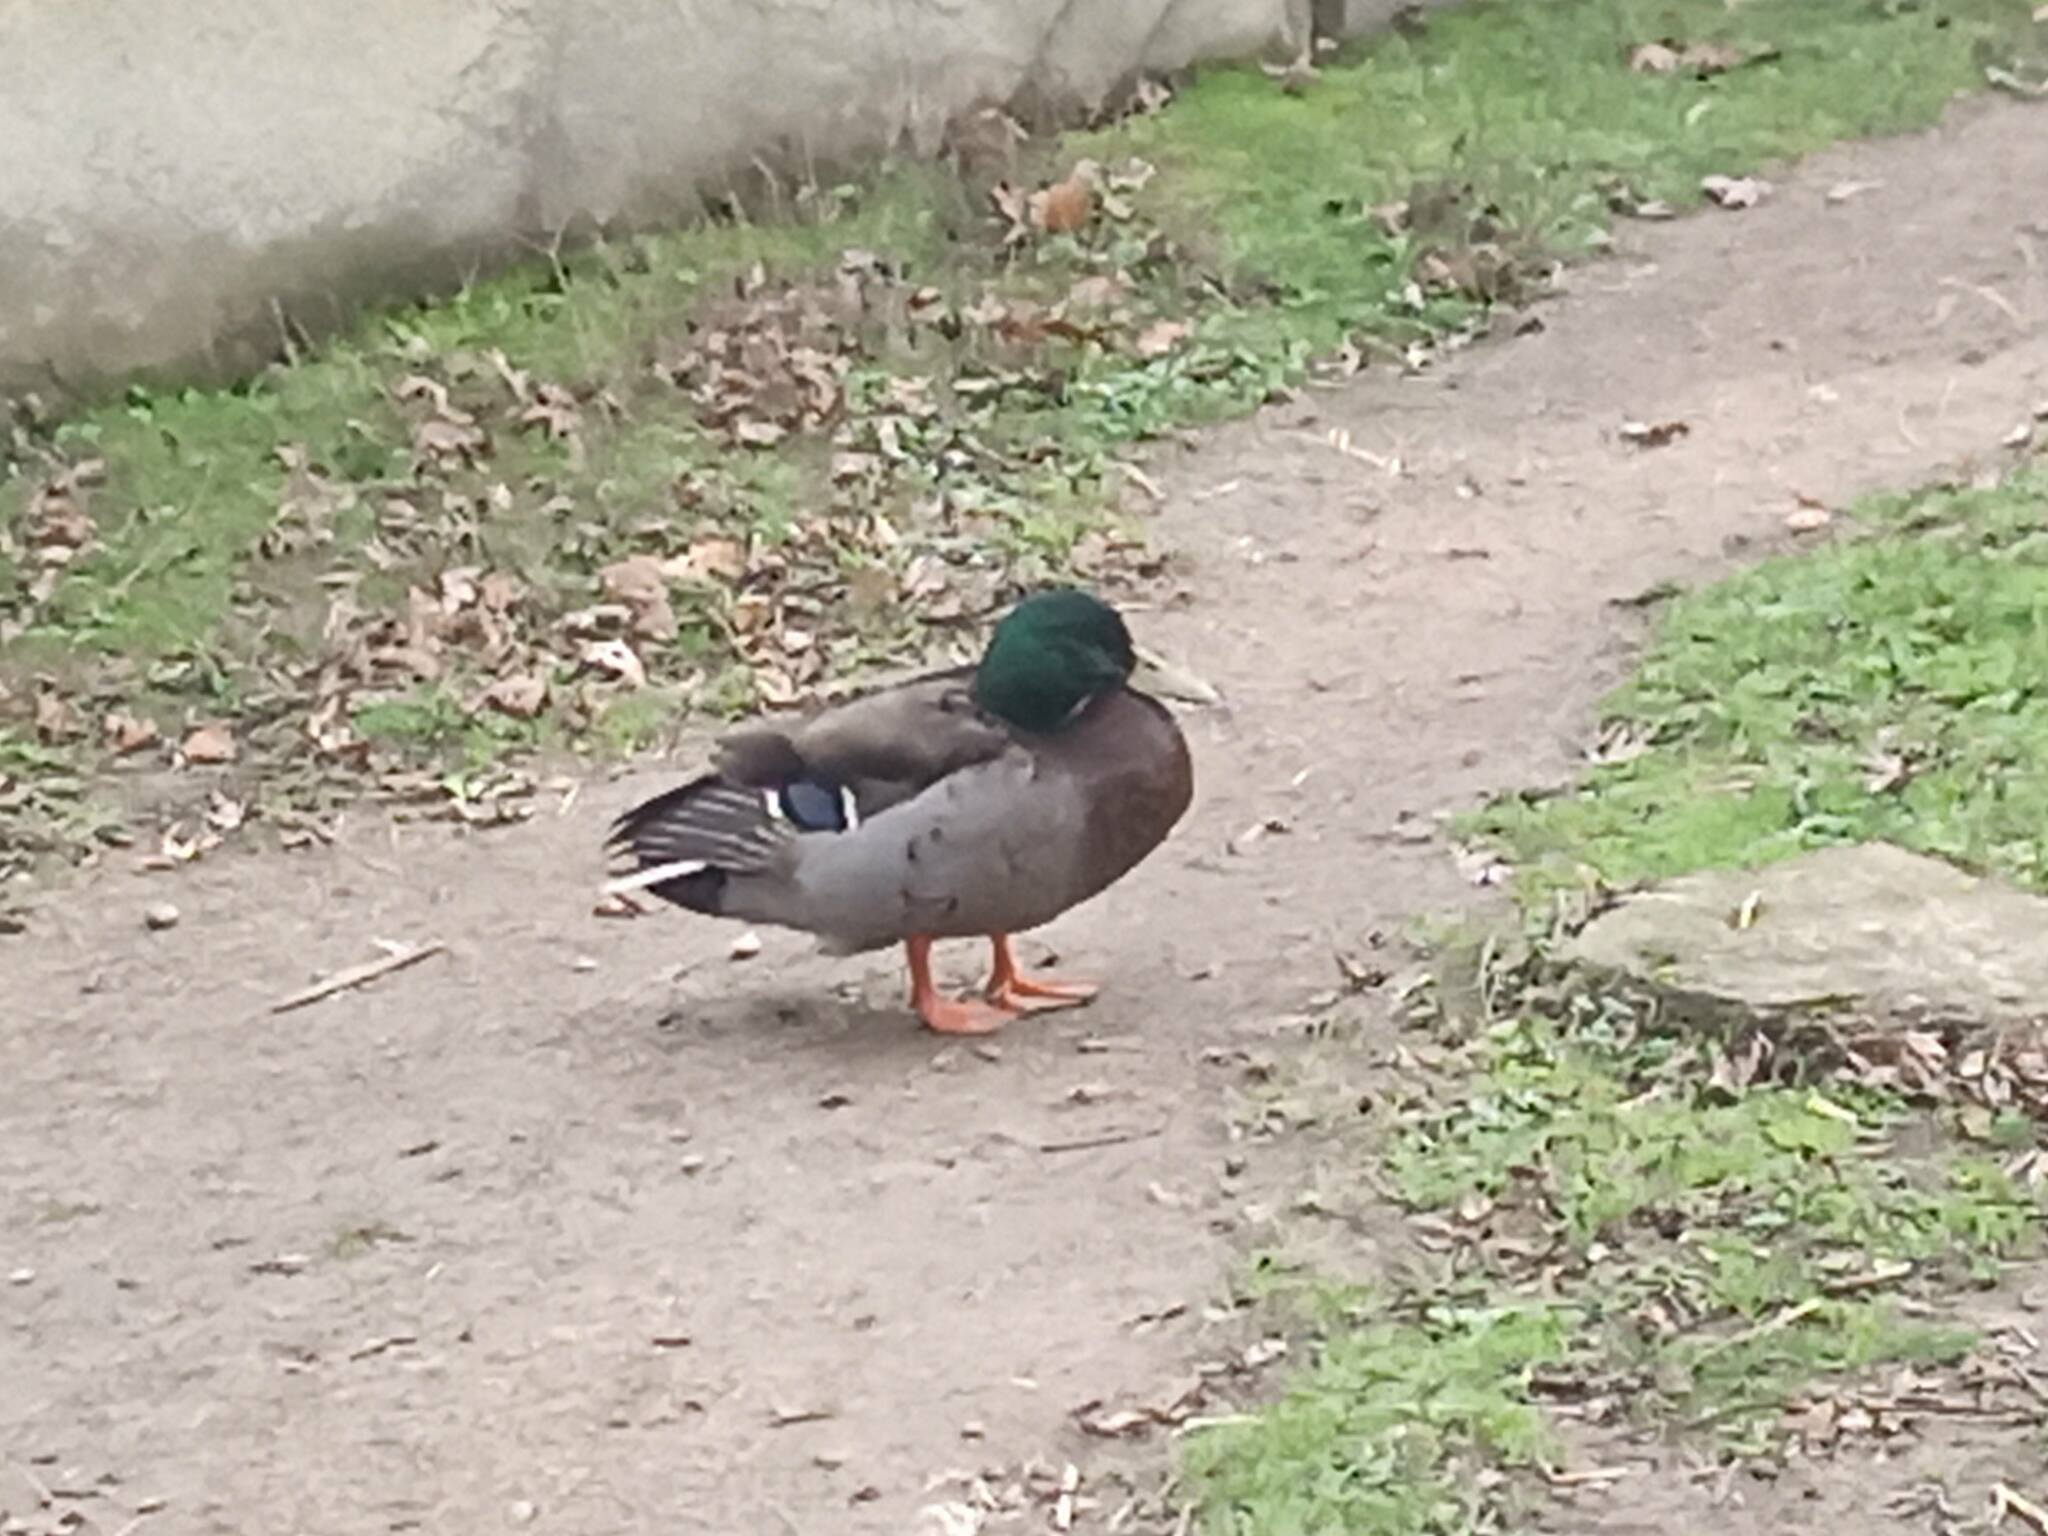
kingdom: Animalia
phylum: Chordata
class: Aves
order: Anseriformes
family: Anatidae
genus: Anas
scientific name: Anas platyrhynchos
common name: Mallard
